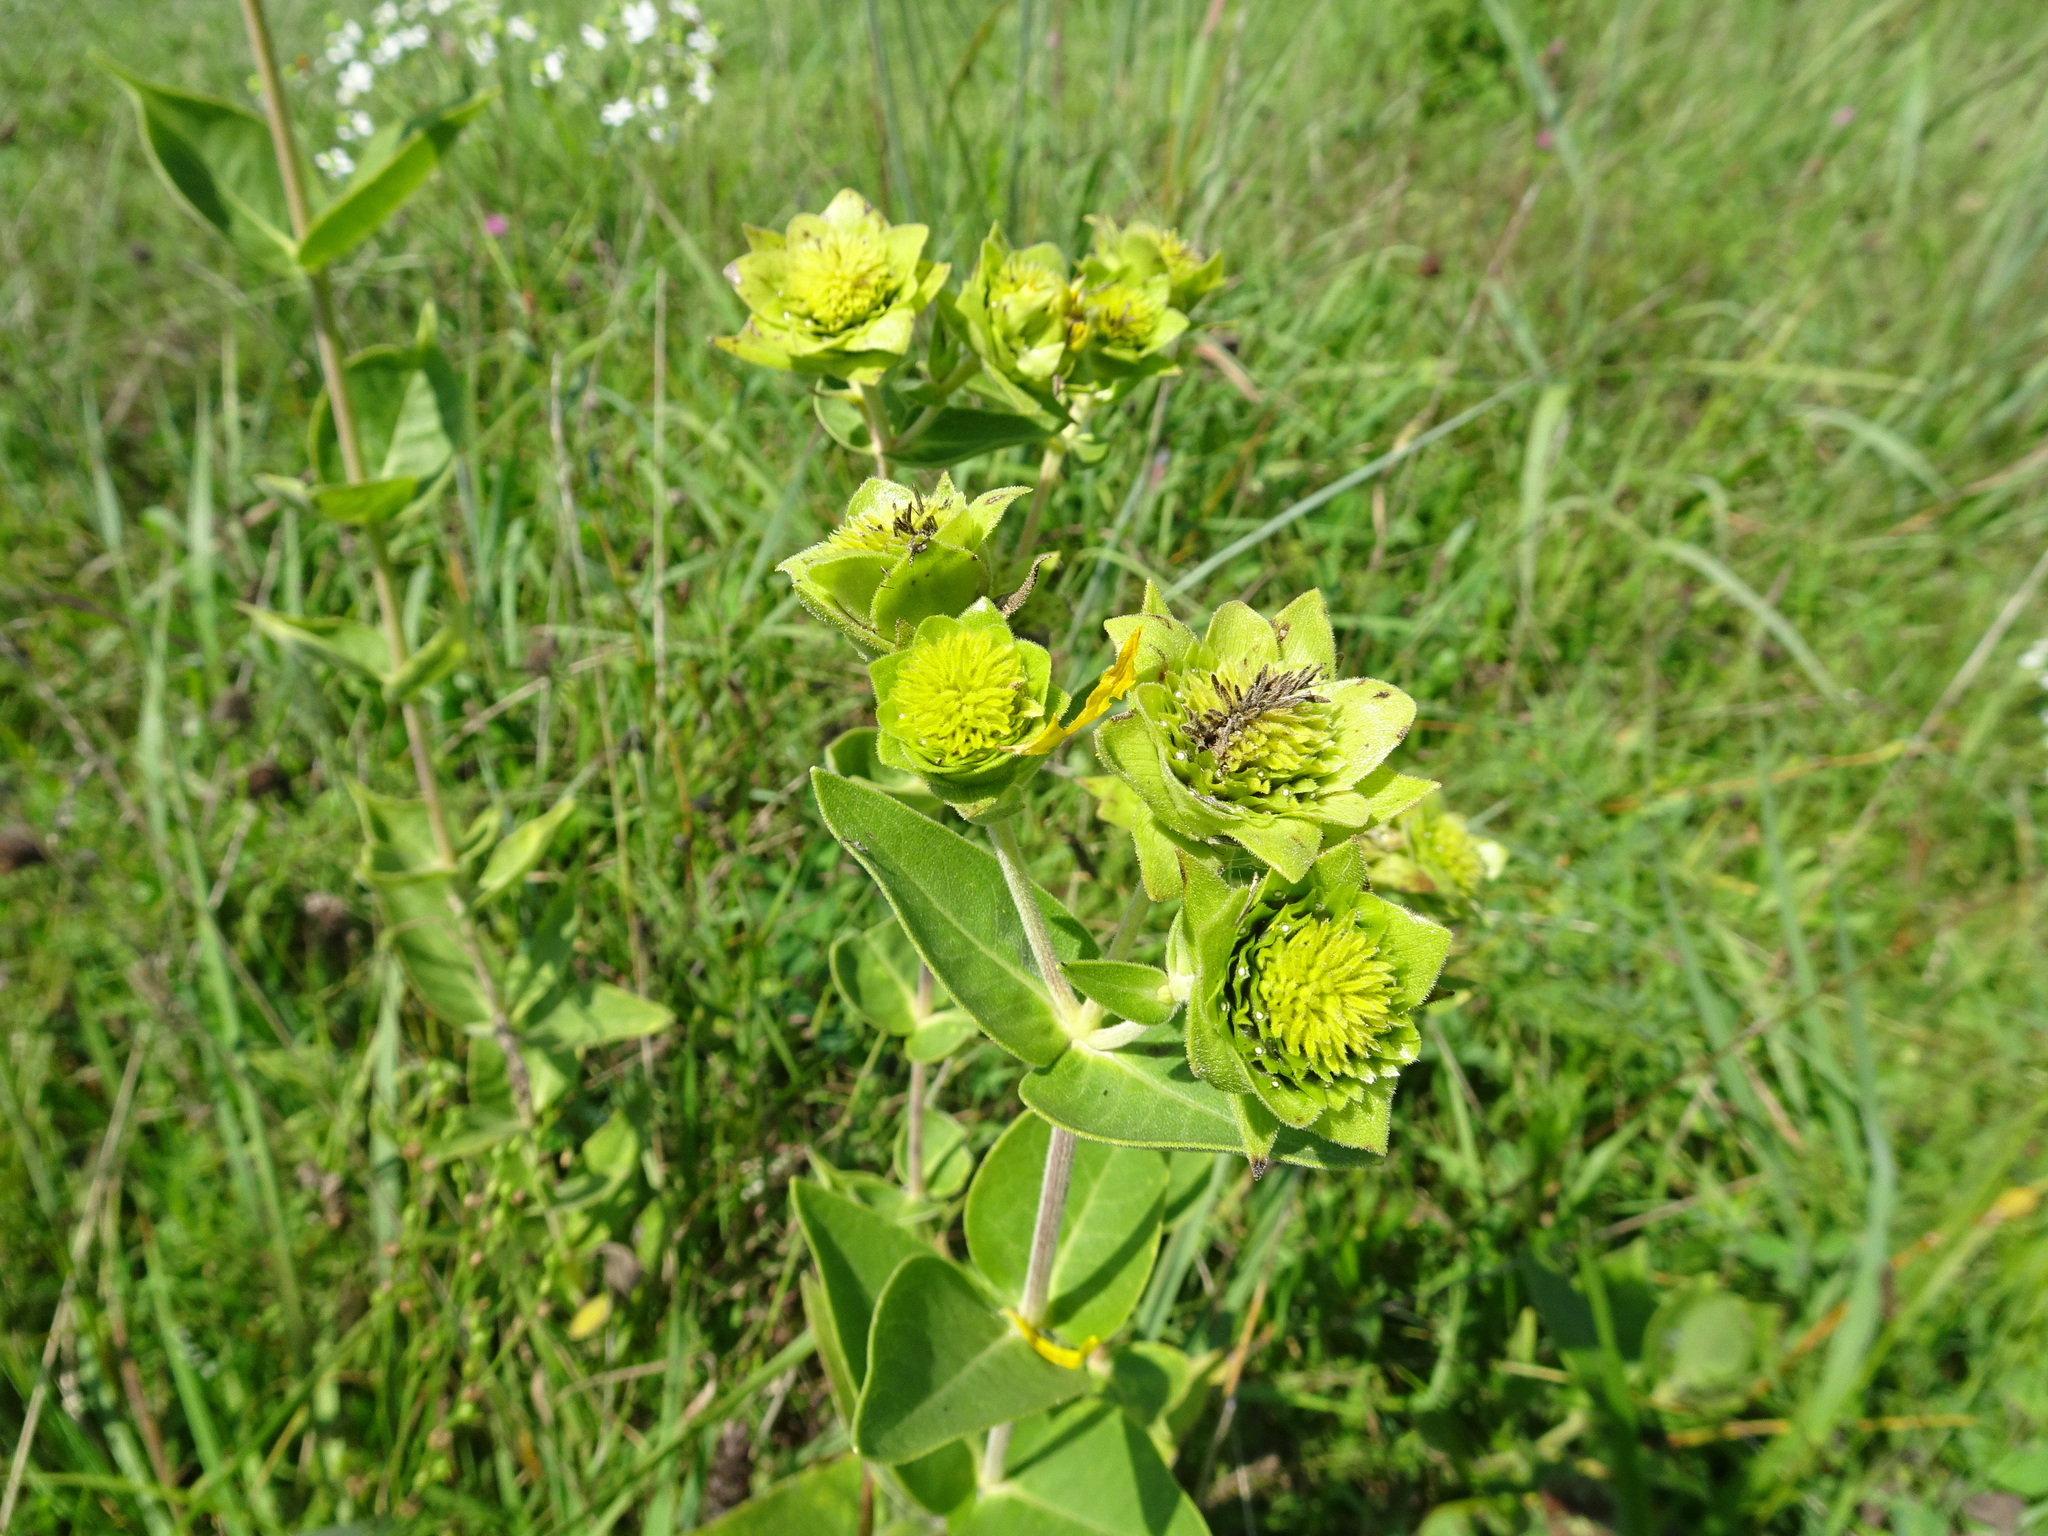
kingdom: Plantae
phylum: Tracheophyta
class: Magnoliopsida
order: Asterales
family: Asteraceae
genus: Silphium
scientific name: Silphium integrifolium
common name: Whole-leaf rosinweed
